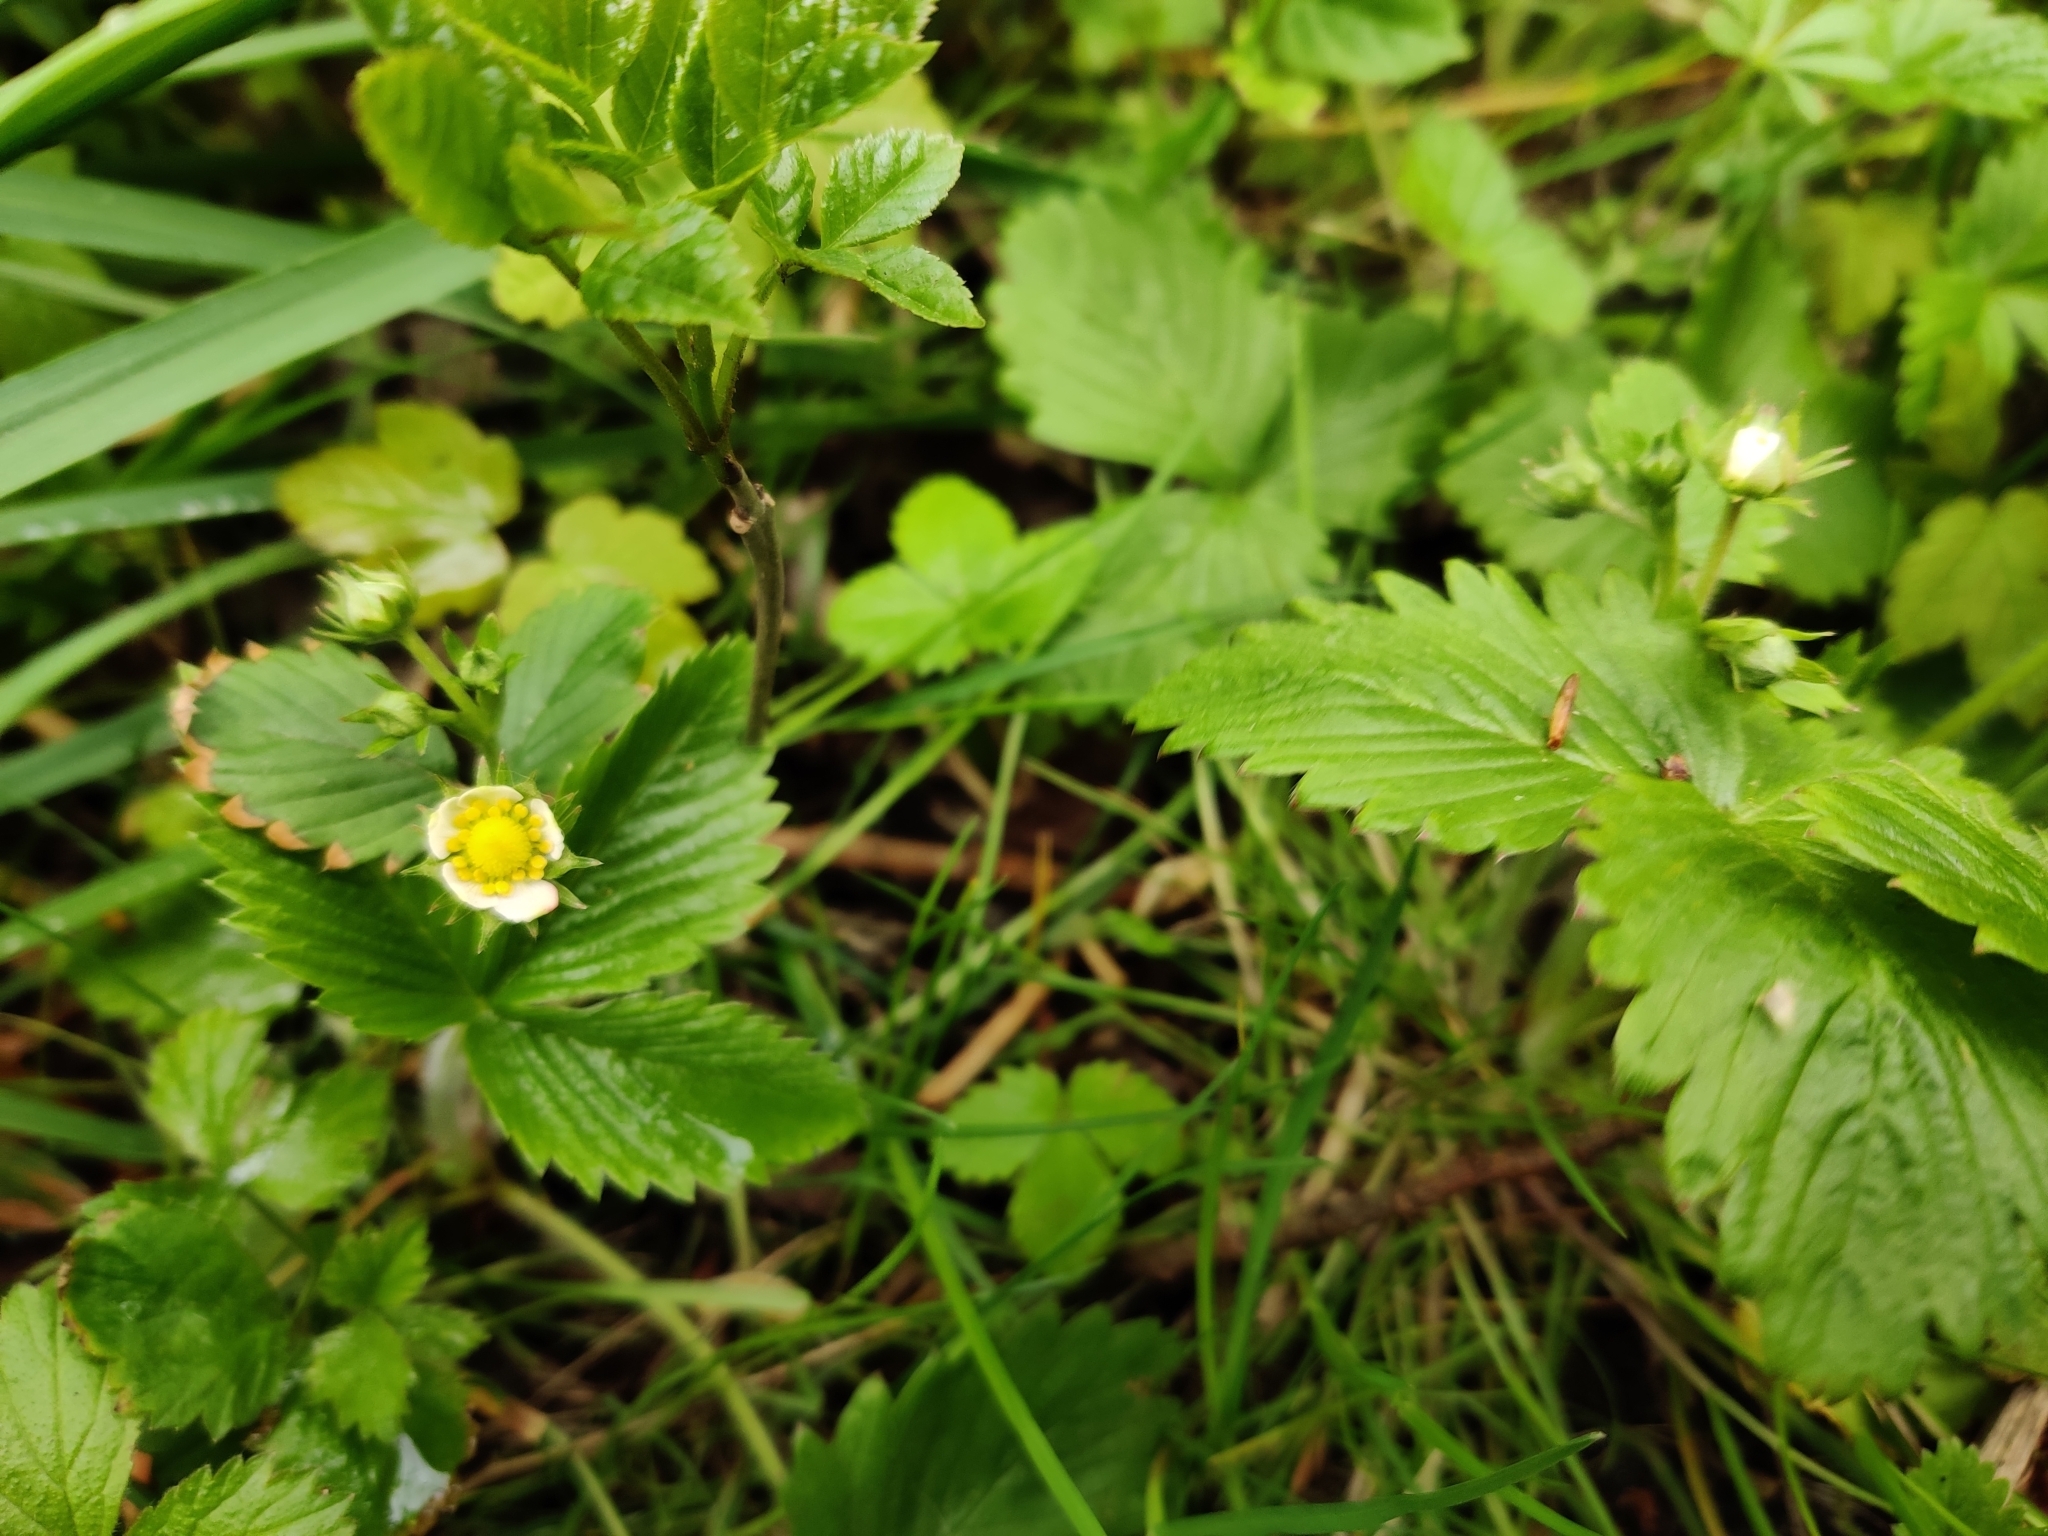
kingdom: Plantae
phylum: Tracheophyta
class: Magnoliopsida
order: Rosales
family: Rosaceae
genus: Fragaria
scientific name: Fragaria ananassa
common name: Garden strawberry
